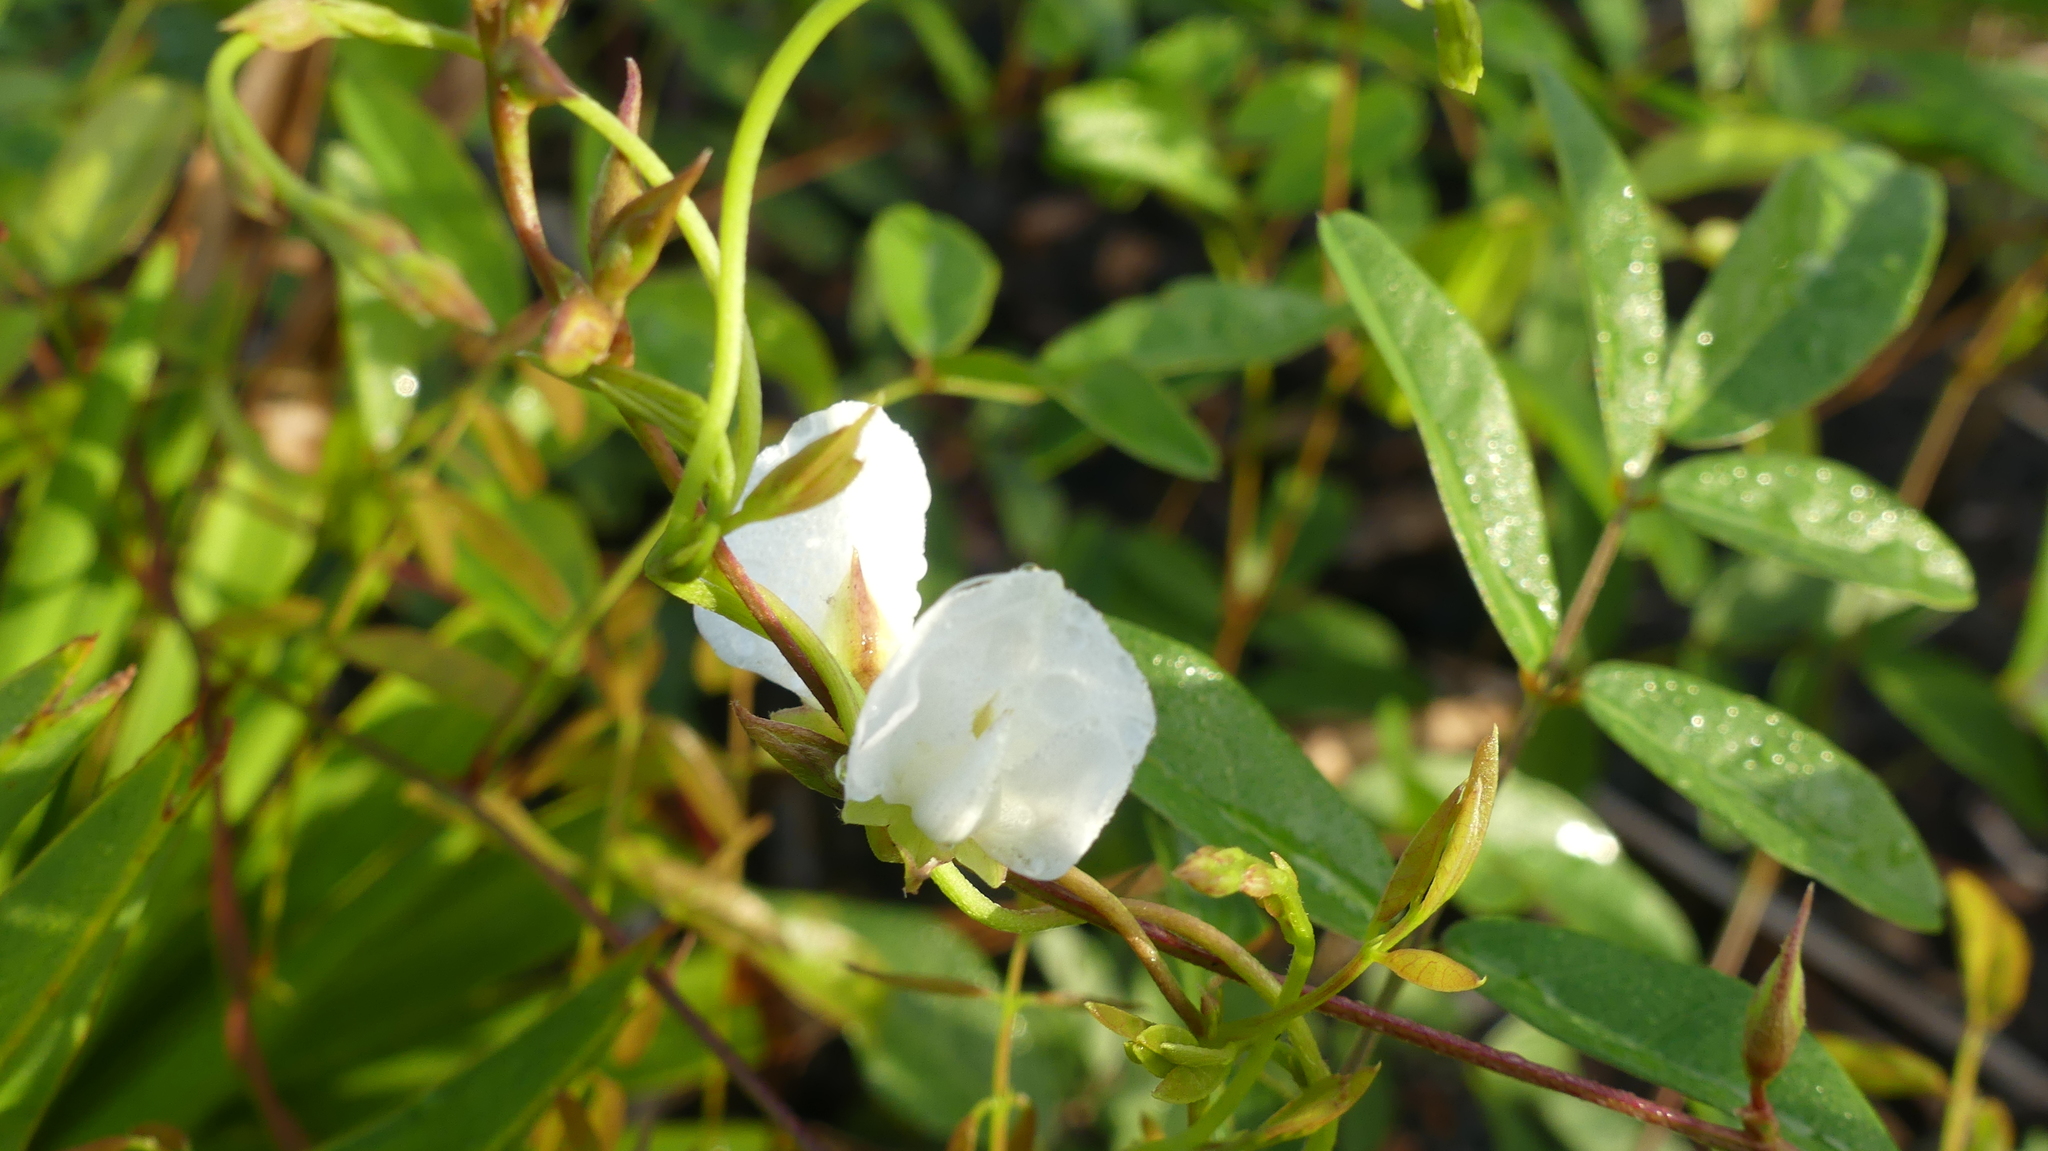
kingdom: Plantae
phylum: Tracheophyta
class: Magnoliopsida
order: Fabales
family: Fabaceae
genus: Galactia
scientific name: Galactia elliottii
